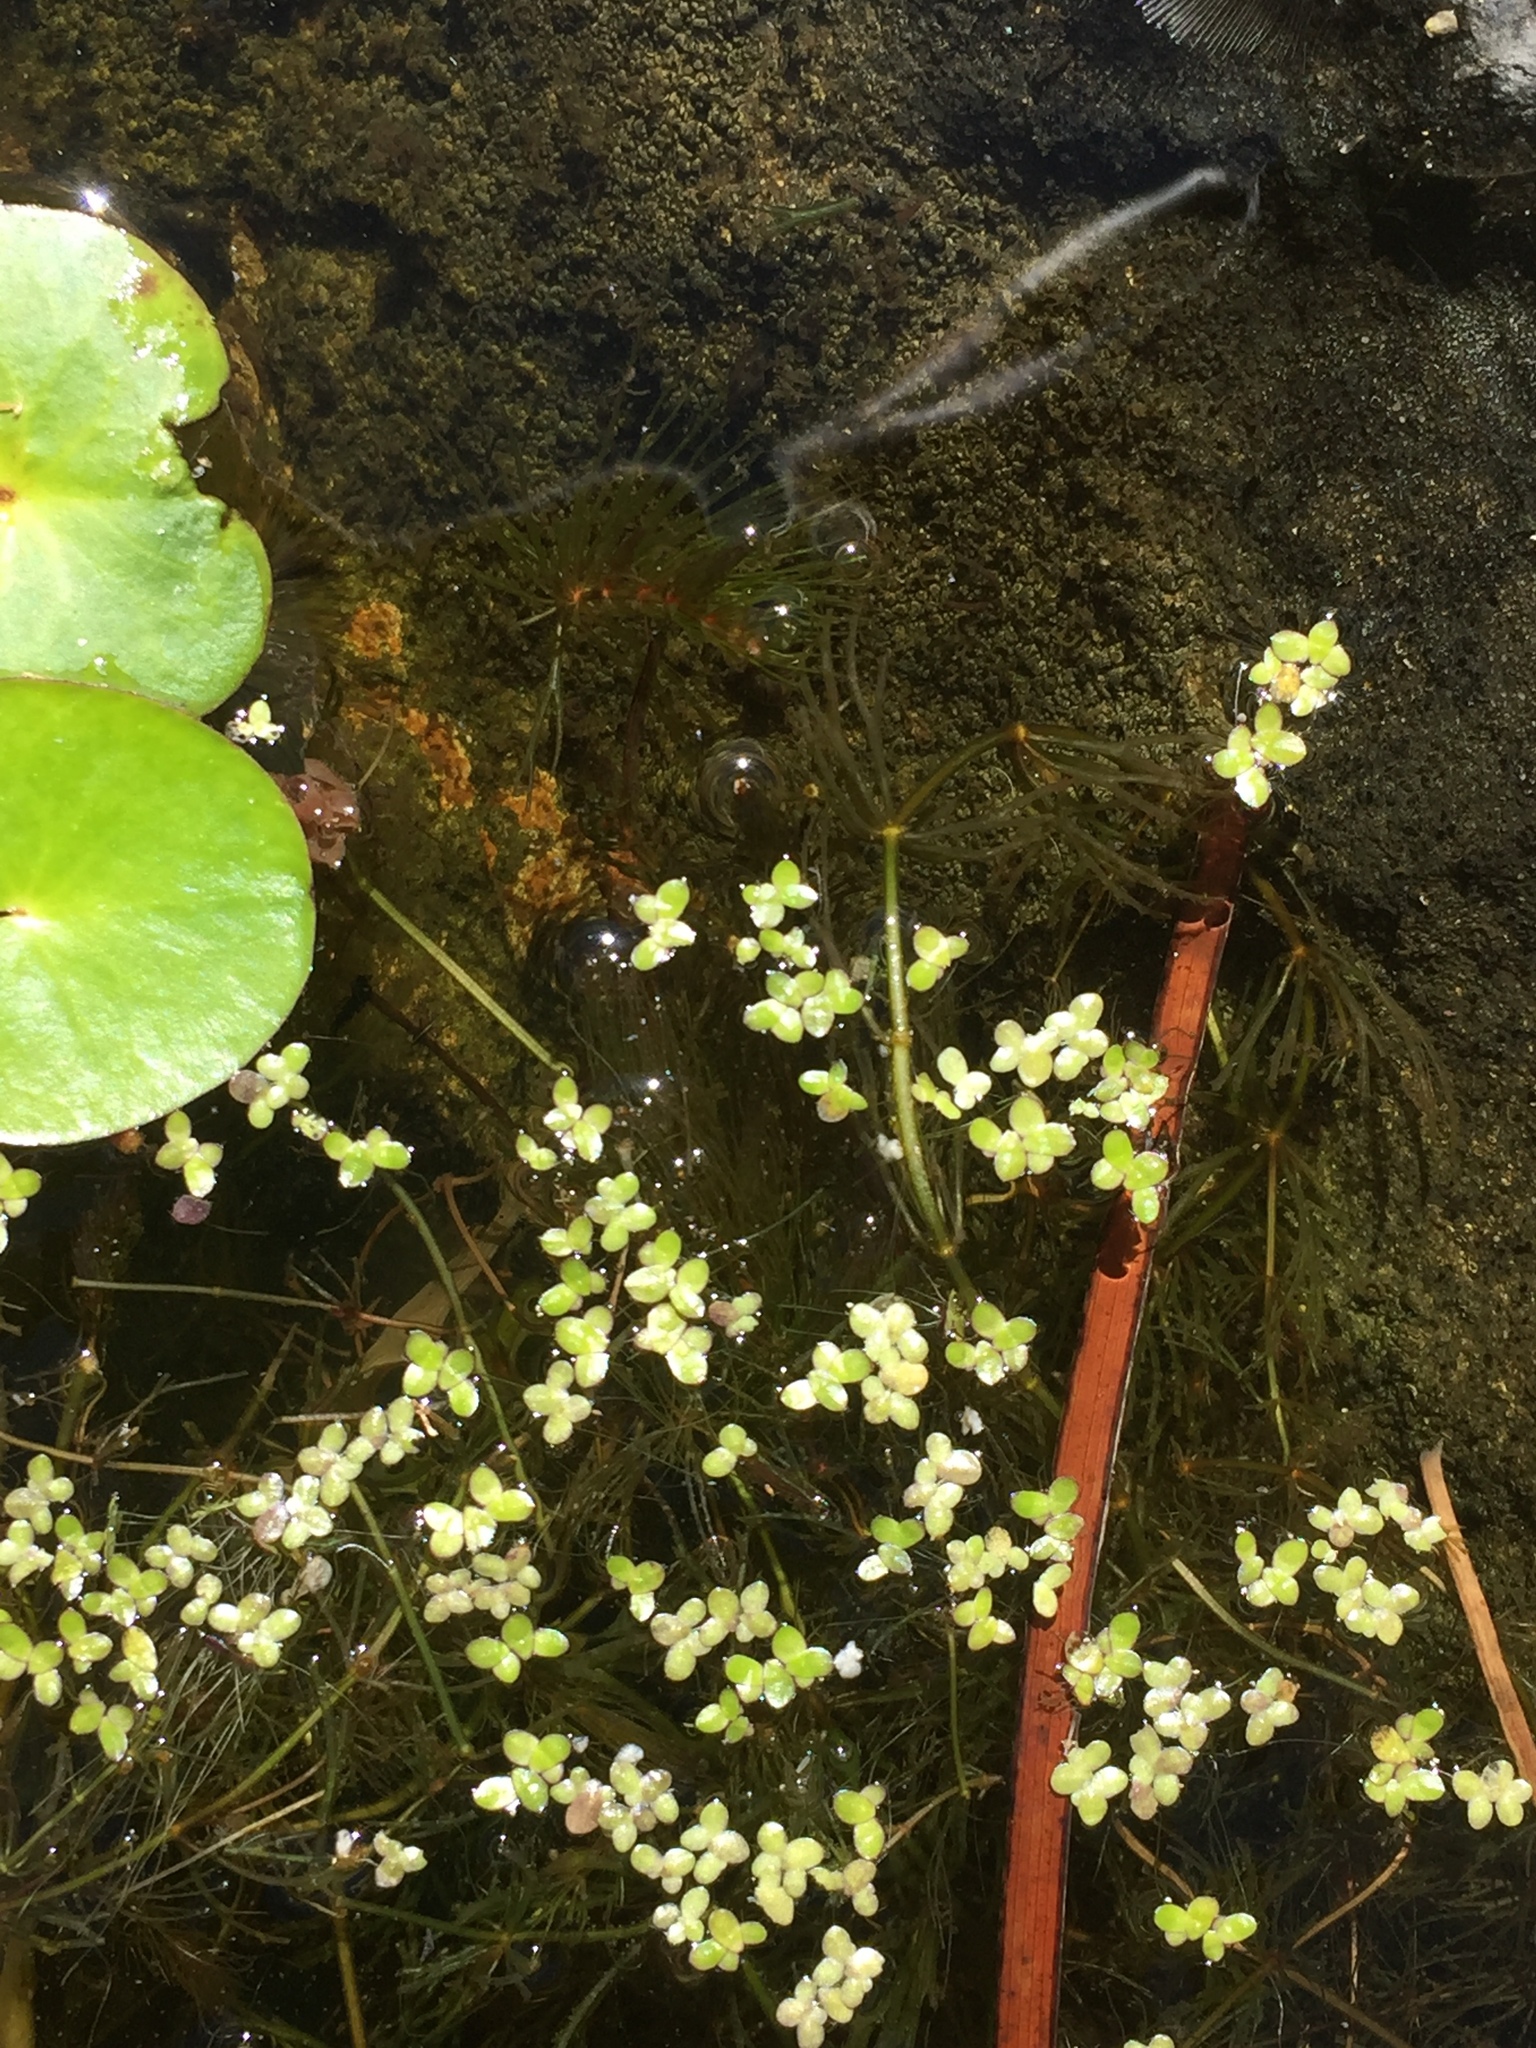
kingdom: Plantae
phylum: Tracheophyta
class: Liliopsida
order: Alismatales
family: Araceae
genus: Lemna
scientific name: Lemna minor
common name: Common duckweed
